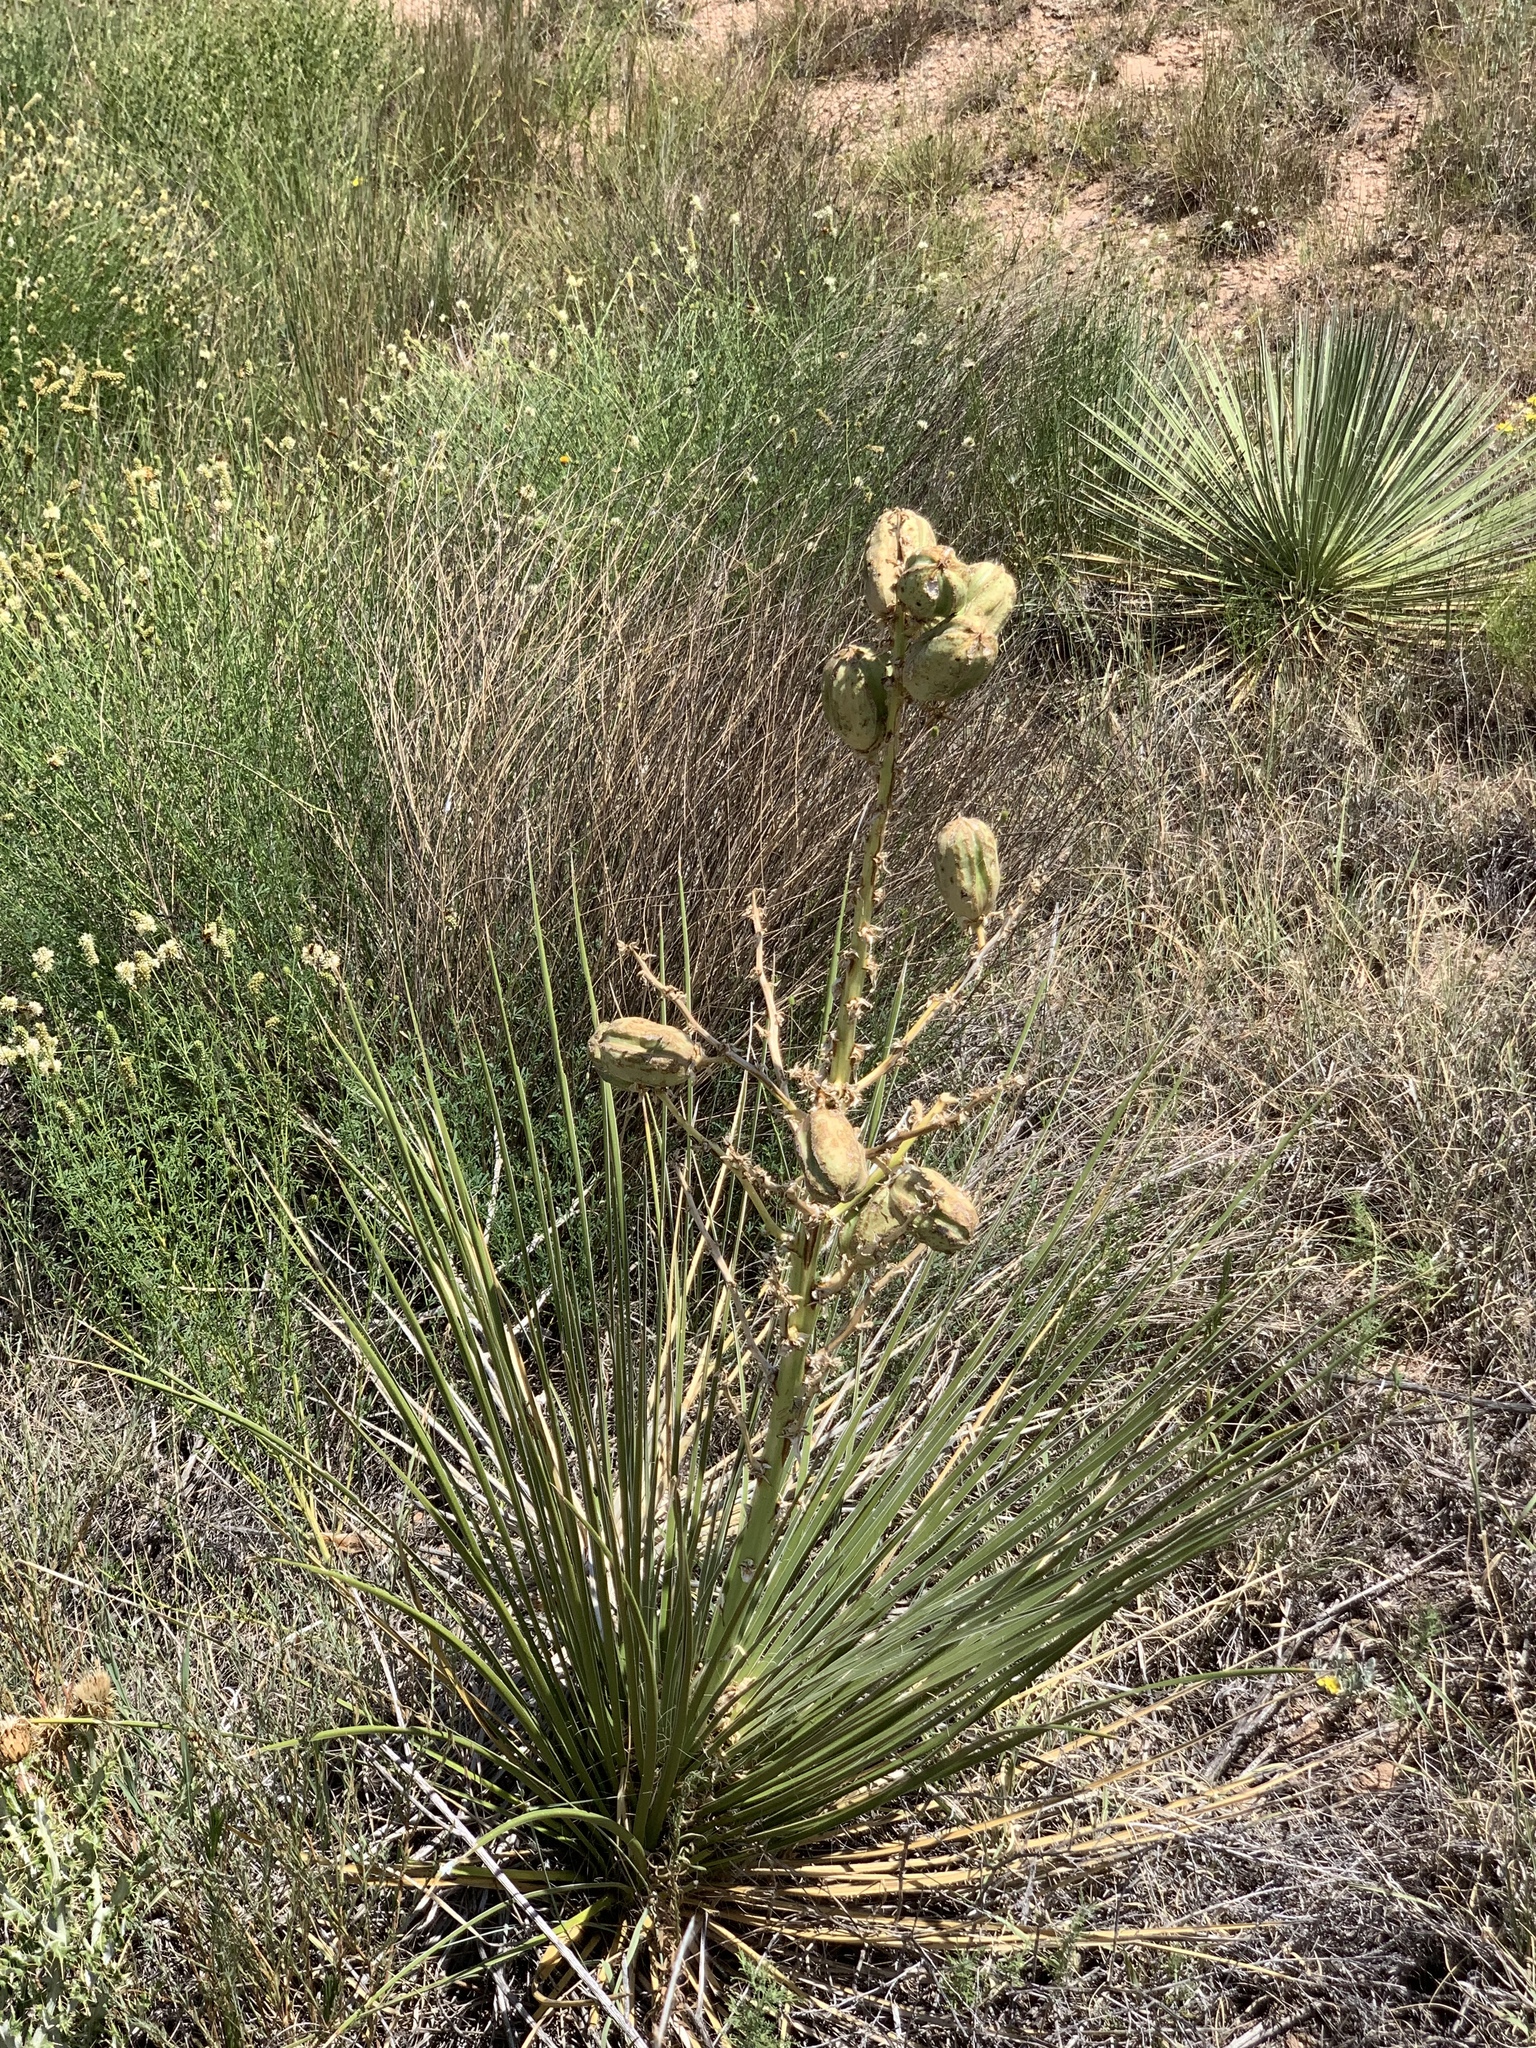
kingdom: Plantae
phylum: Tracheophyta
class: Liliopsida
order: Asparagales
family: Asparagaceae
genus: Yucca
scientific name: Yucca campestris
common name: Plains yucca
